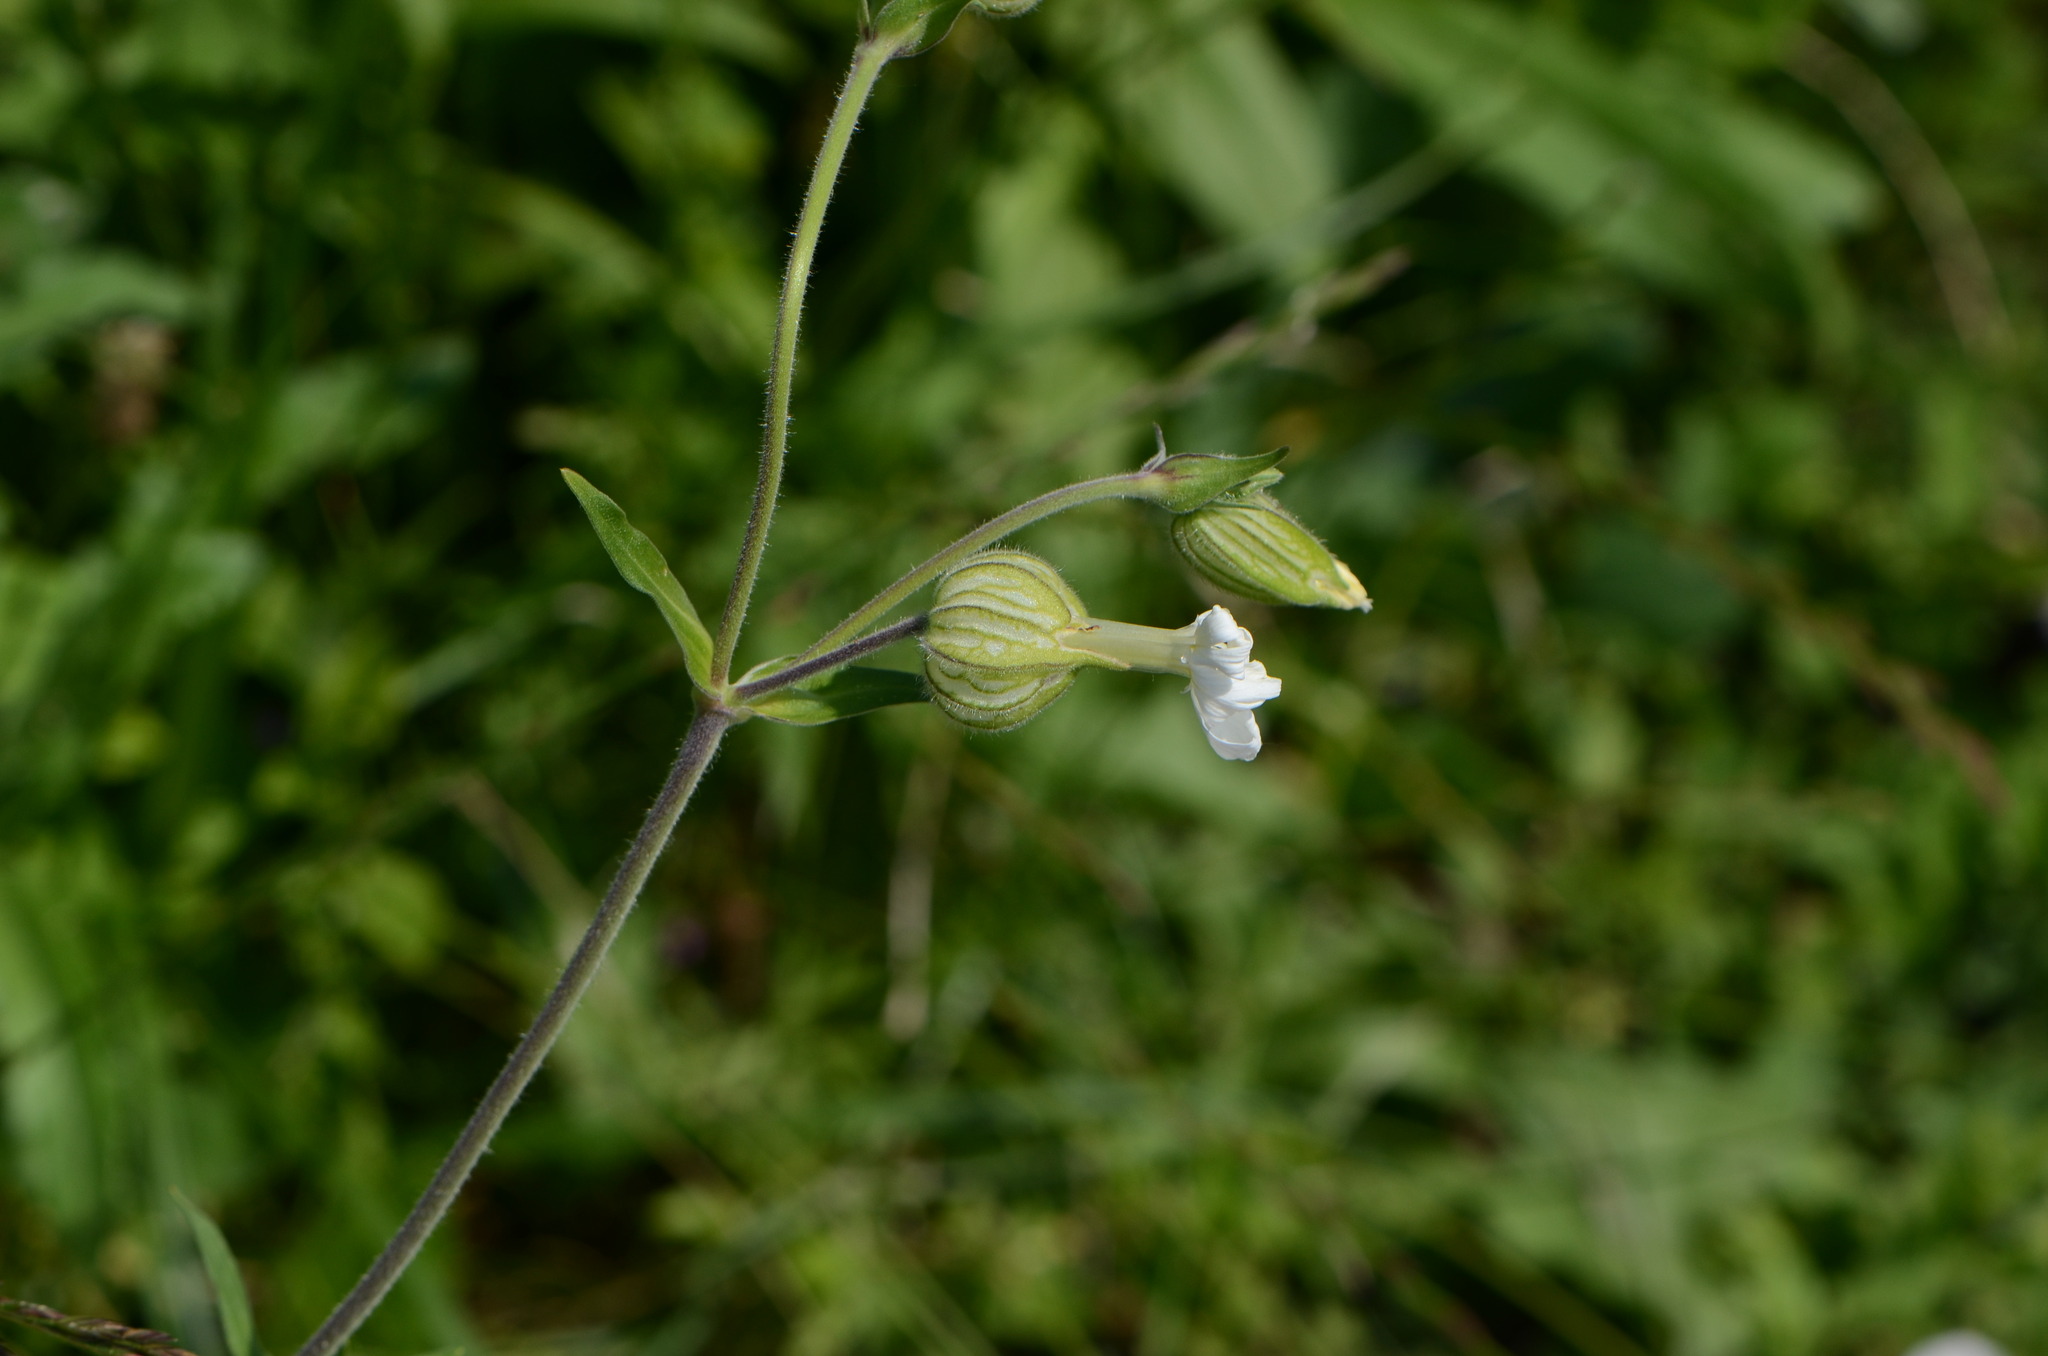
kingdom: Plantae
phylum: Tracheophyta
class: Magnoliopsida
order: Caryophyllales
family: Caryophyllaceae
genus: Silene
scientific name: Silene latifolia
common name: White campion
